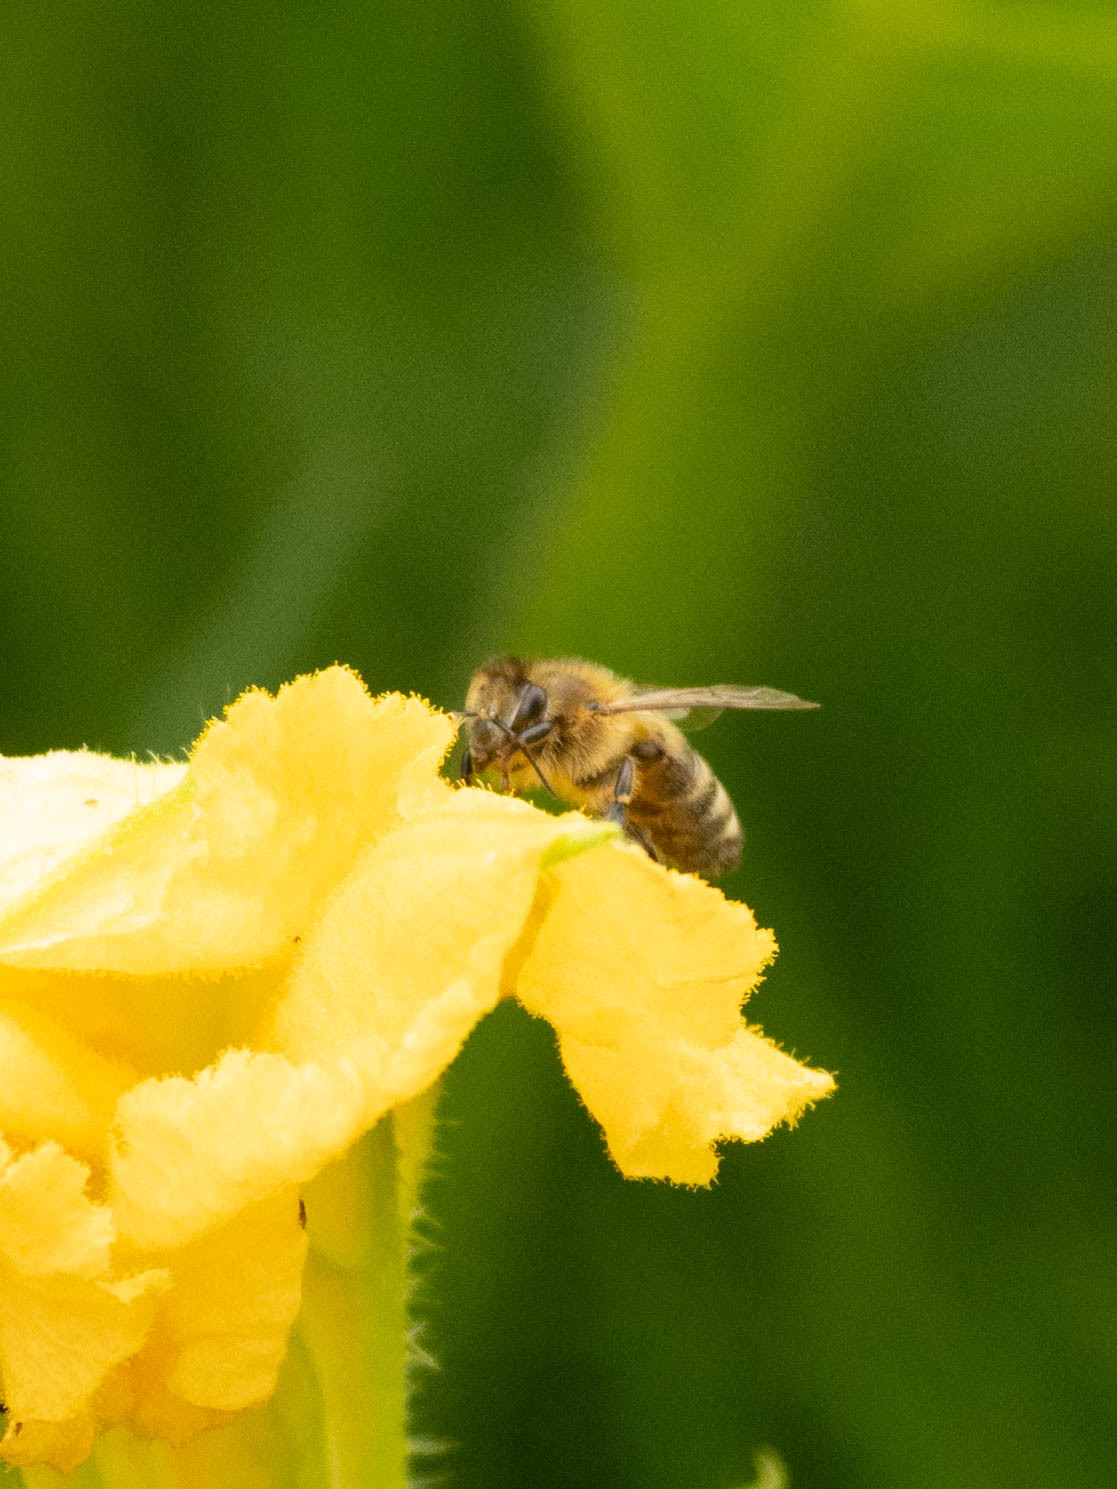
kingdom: Animalia
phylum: Arthropoda
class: Insecta
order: Hymenoptera
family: Apidae
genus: Apis
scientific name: Apis mellifera
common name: Honey bee
